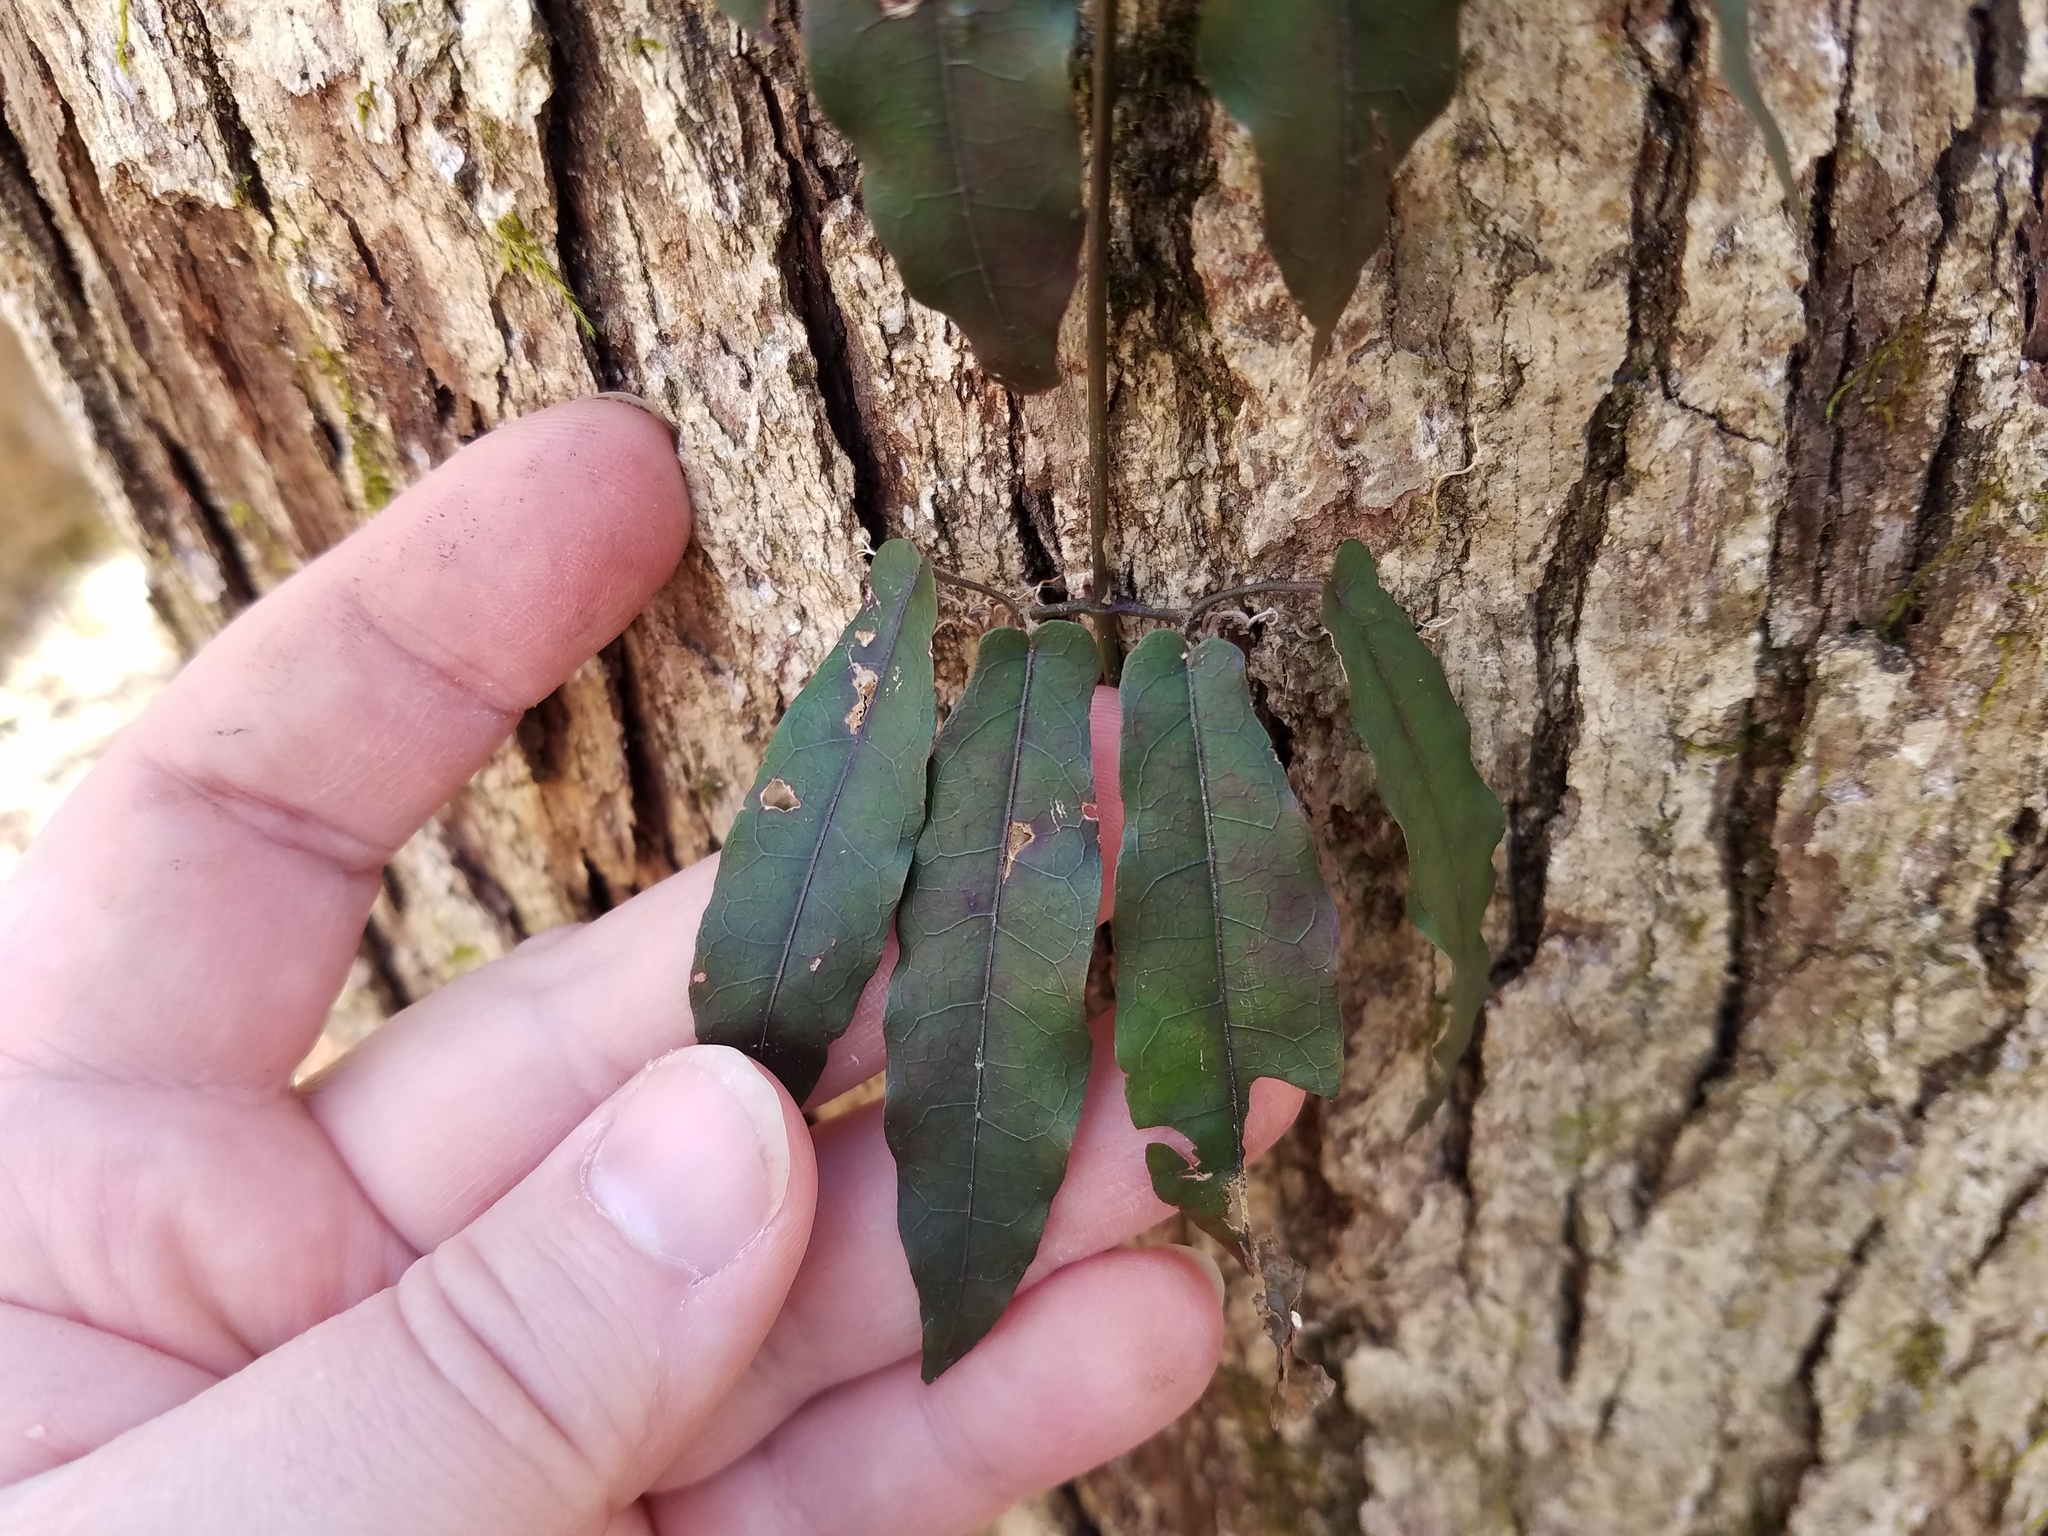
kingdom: Plantae
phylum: Tracheophyta
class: Magnoliopsida
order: Lamiales
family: Bignoniaceae
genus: Bignonia
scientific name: Bignonia capreolata
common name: Crossvine
